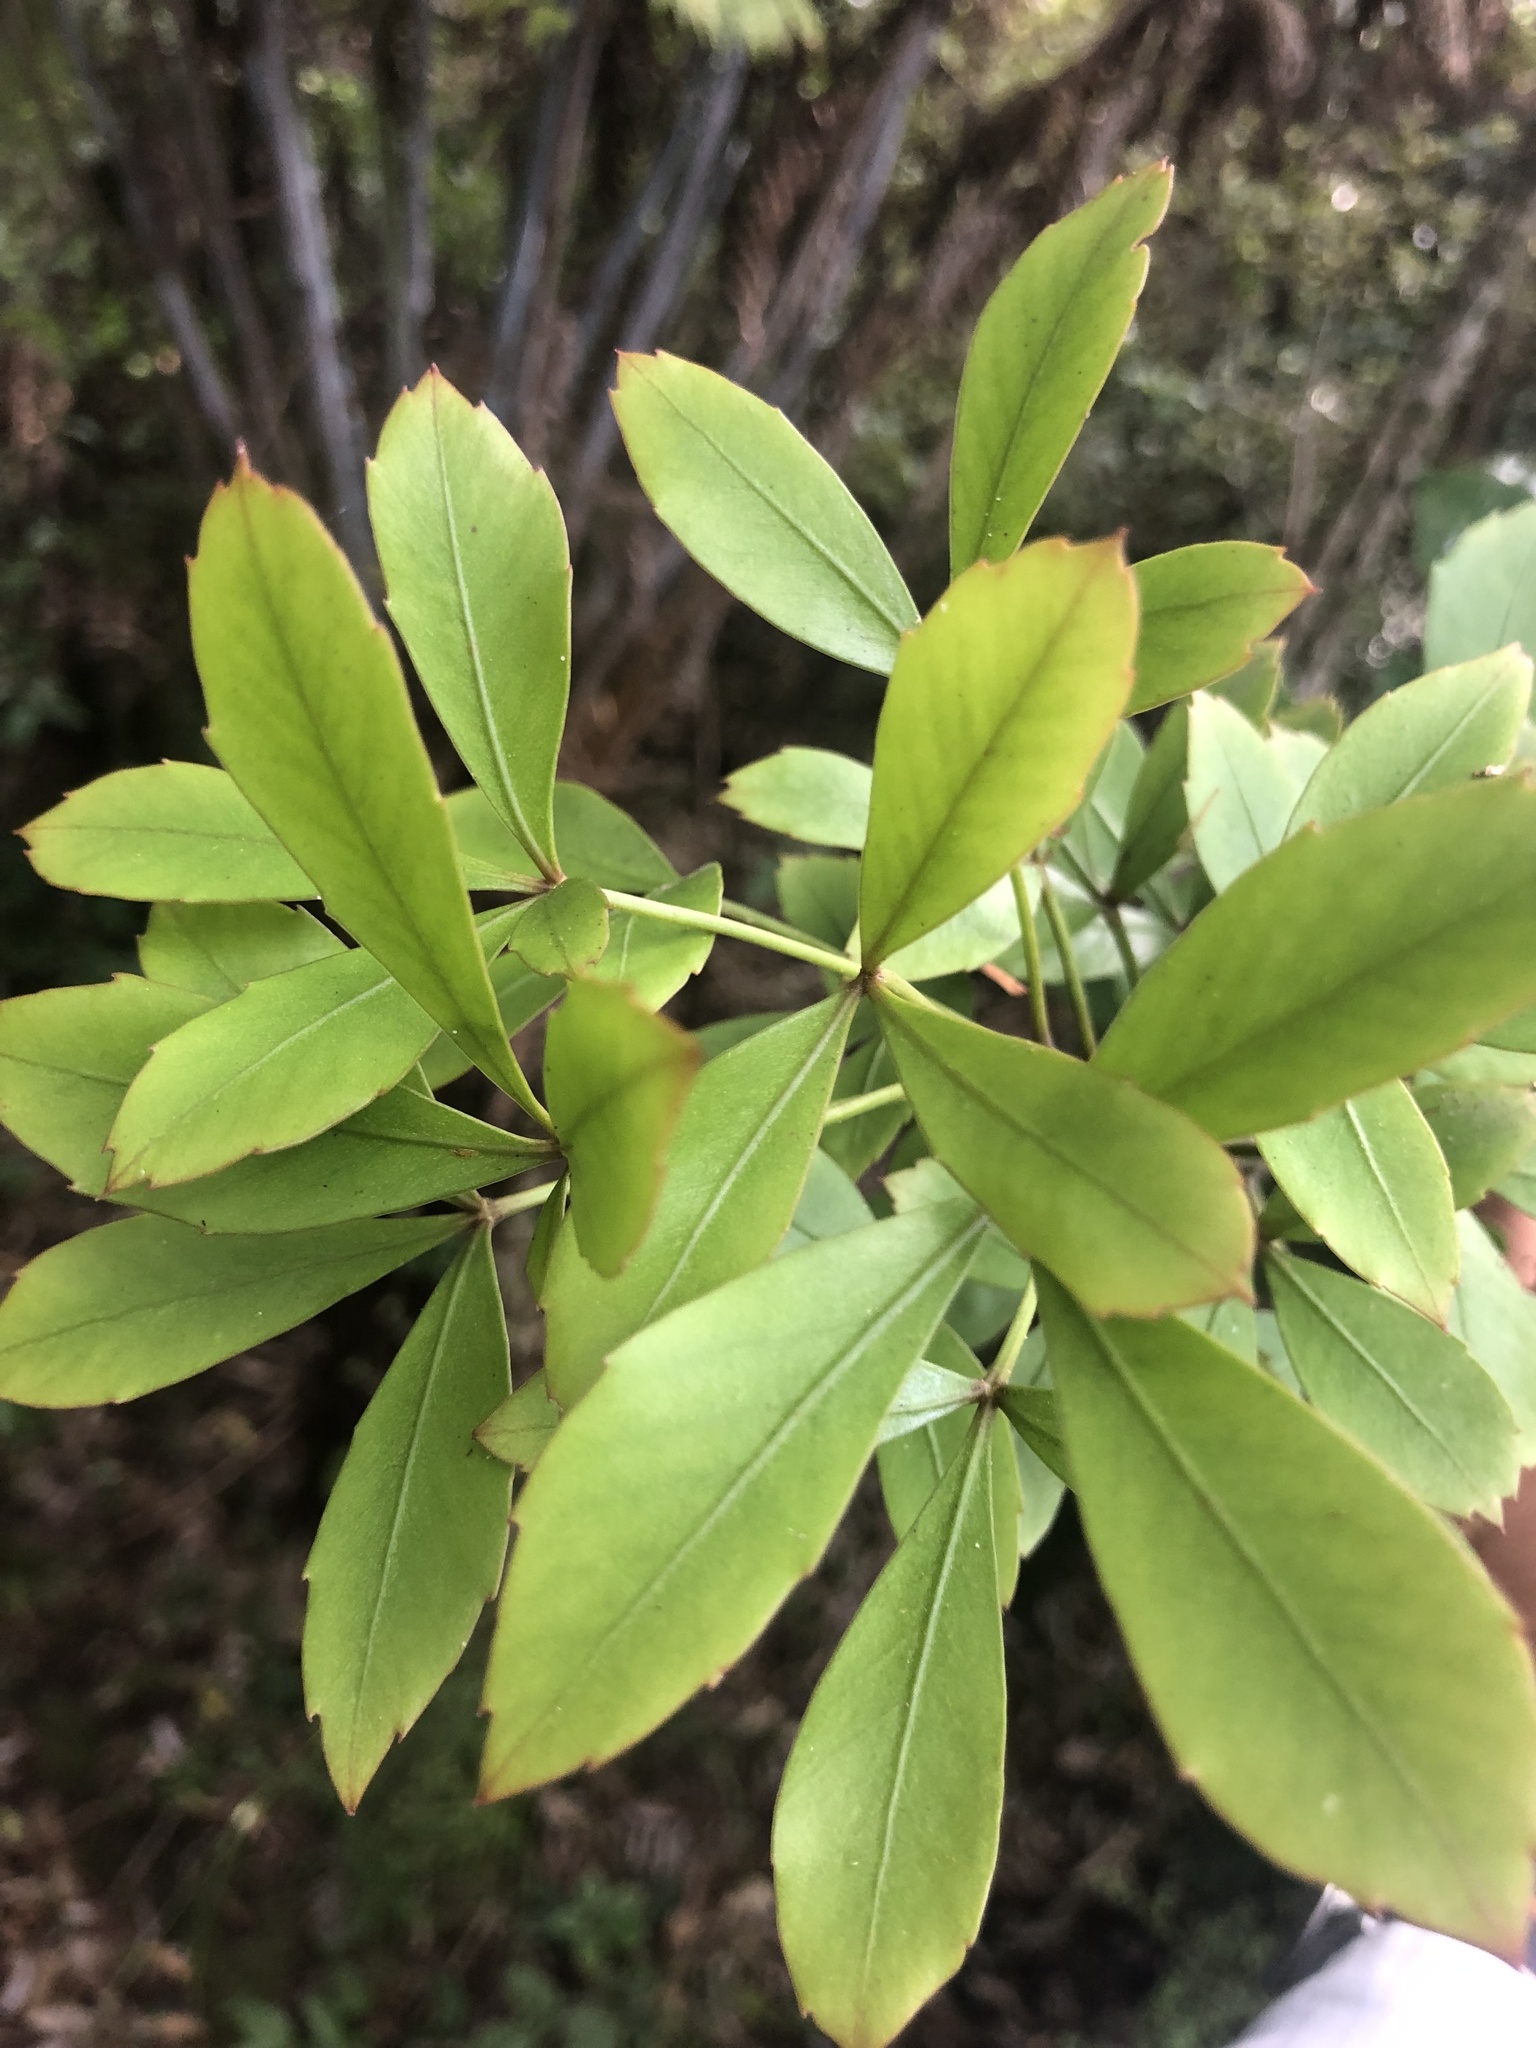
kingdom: Plantae
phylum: Tracheophyta
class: Magnoliopsida
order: Apiales
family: Araliaceae
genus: Pseudopanax
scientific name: Pseudopanax lessonii
